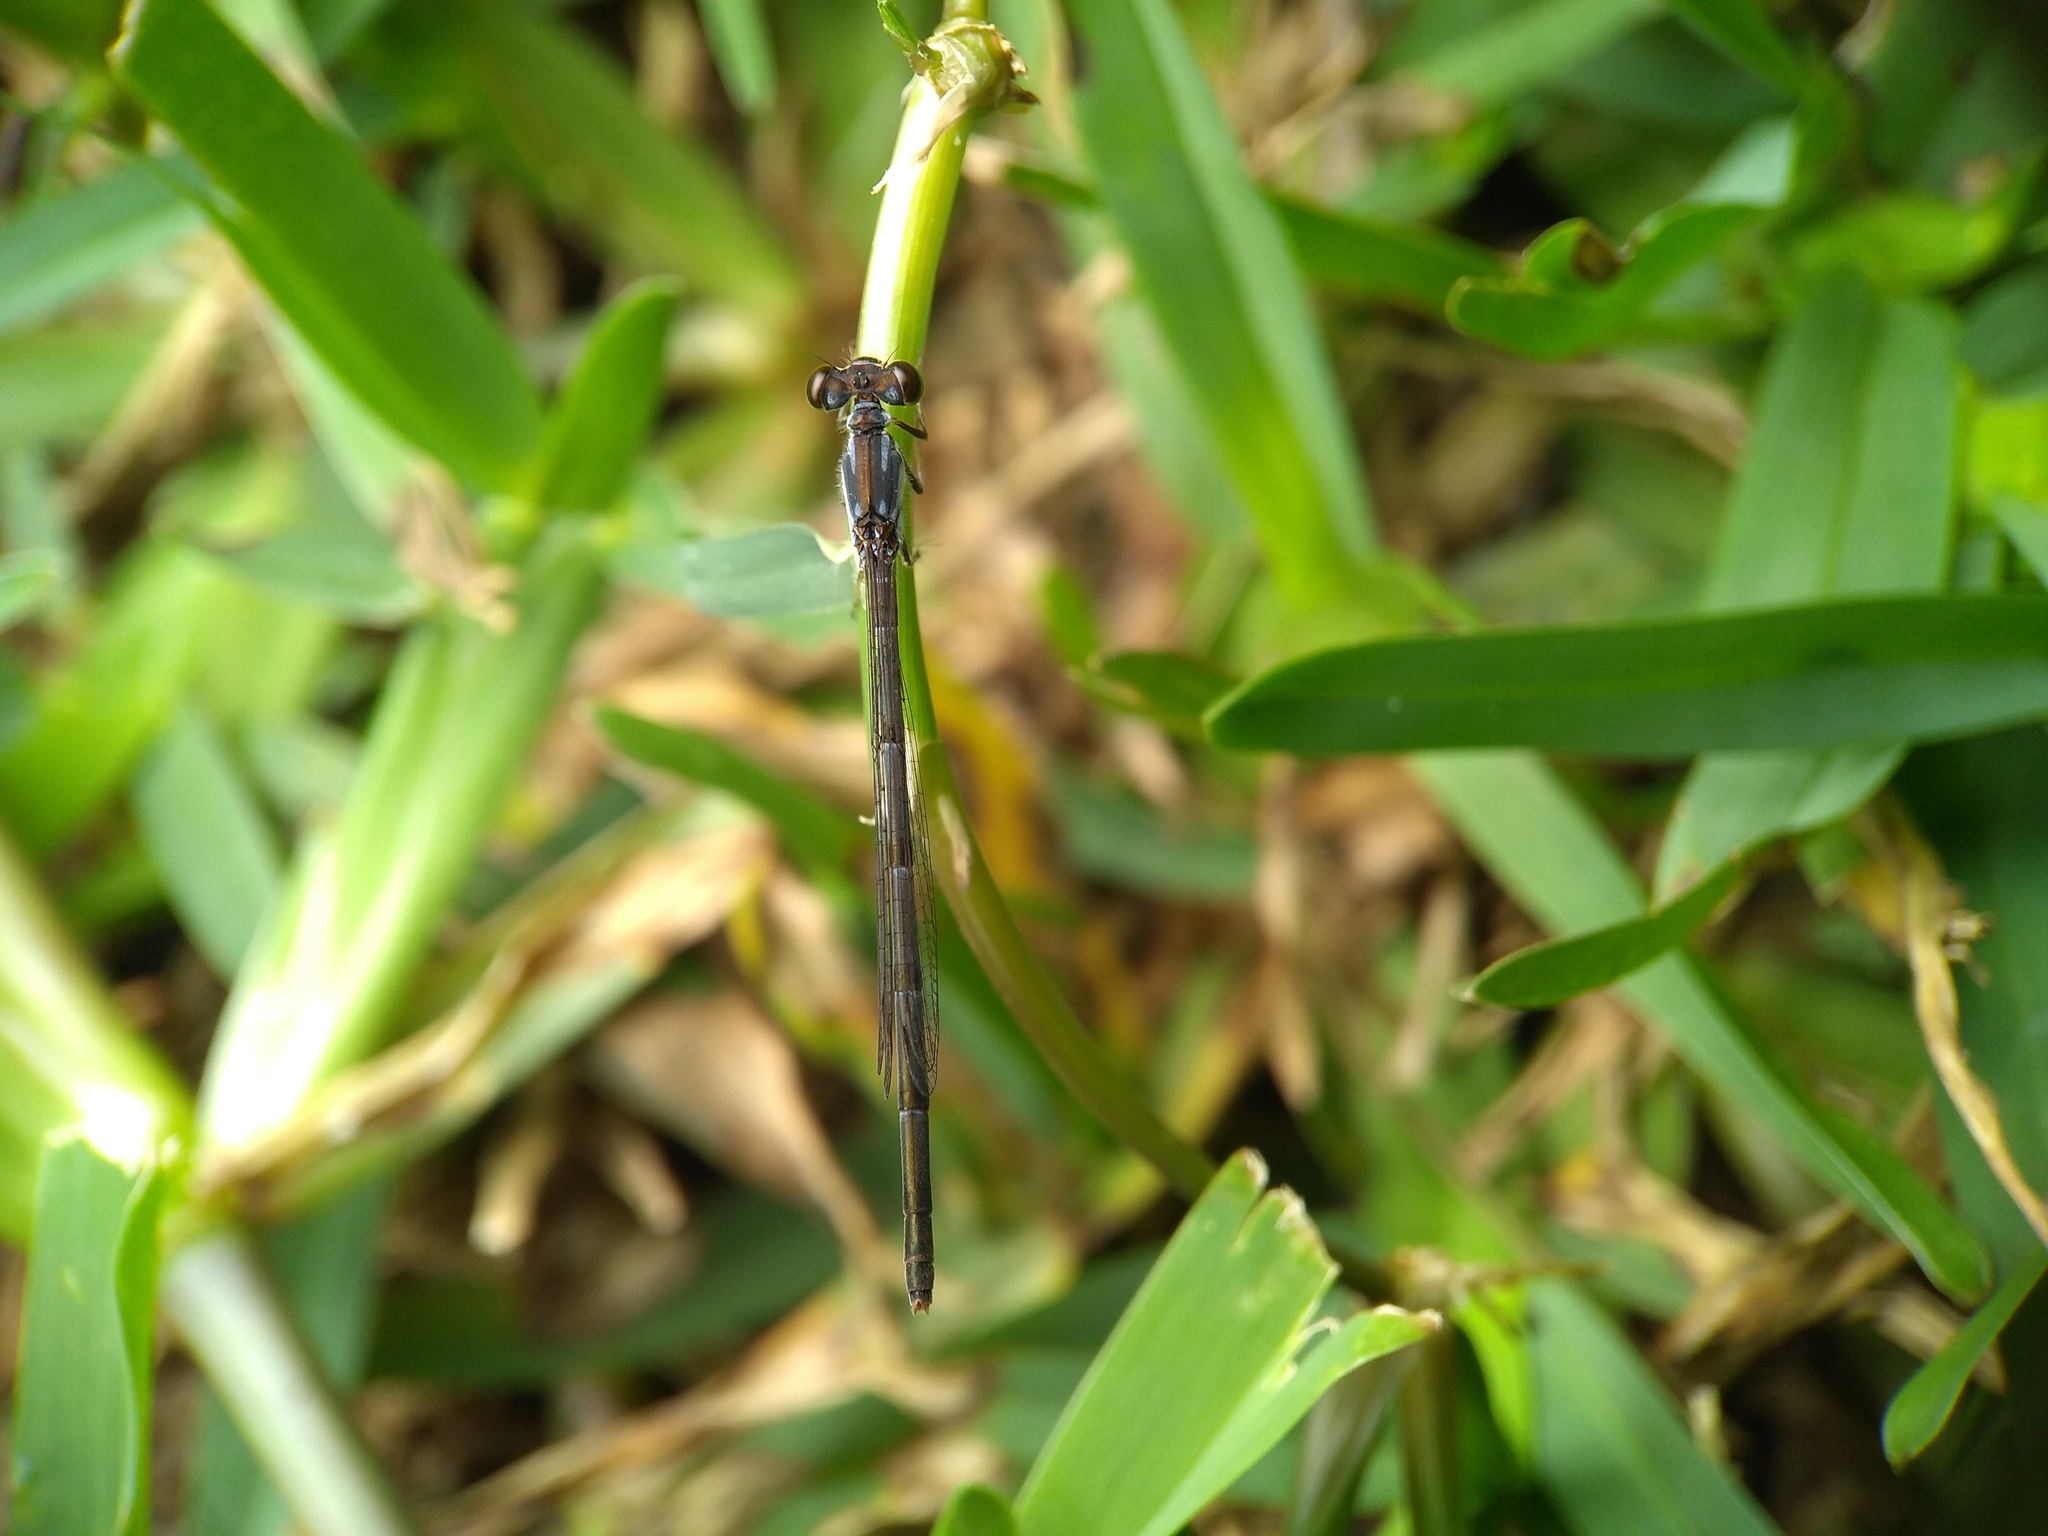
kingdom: Animalia
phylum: Arthropoda
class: Insecta
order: Odonata
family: Coenagrionidae
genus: Ischnura
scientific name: Ischnura posita
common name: Fragile forktail
